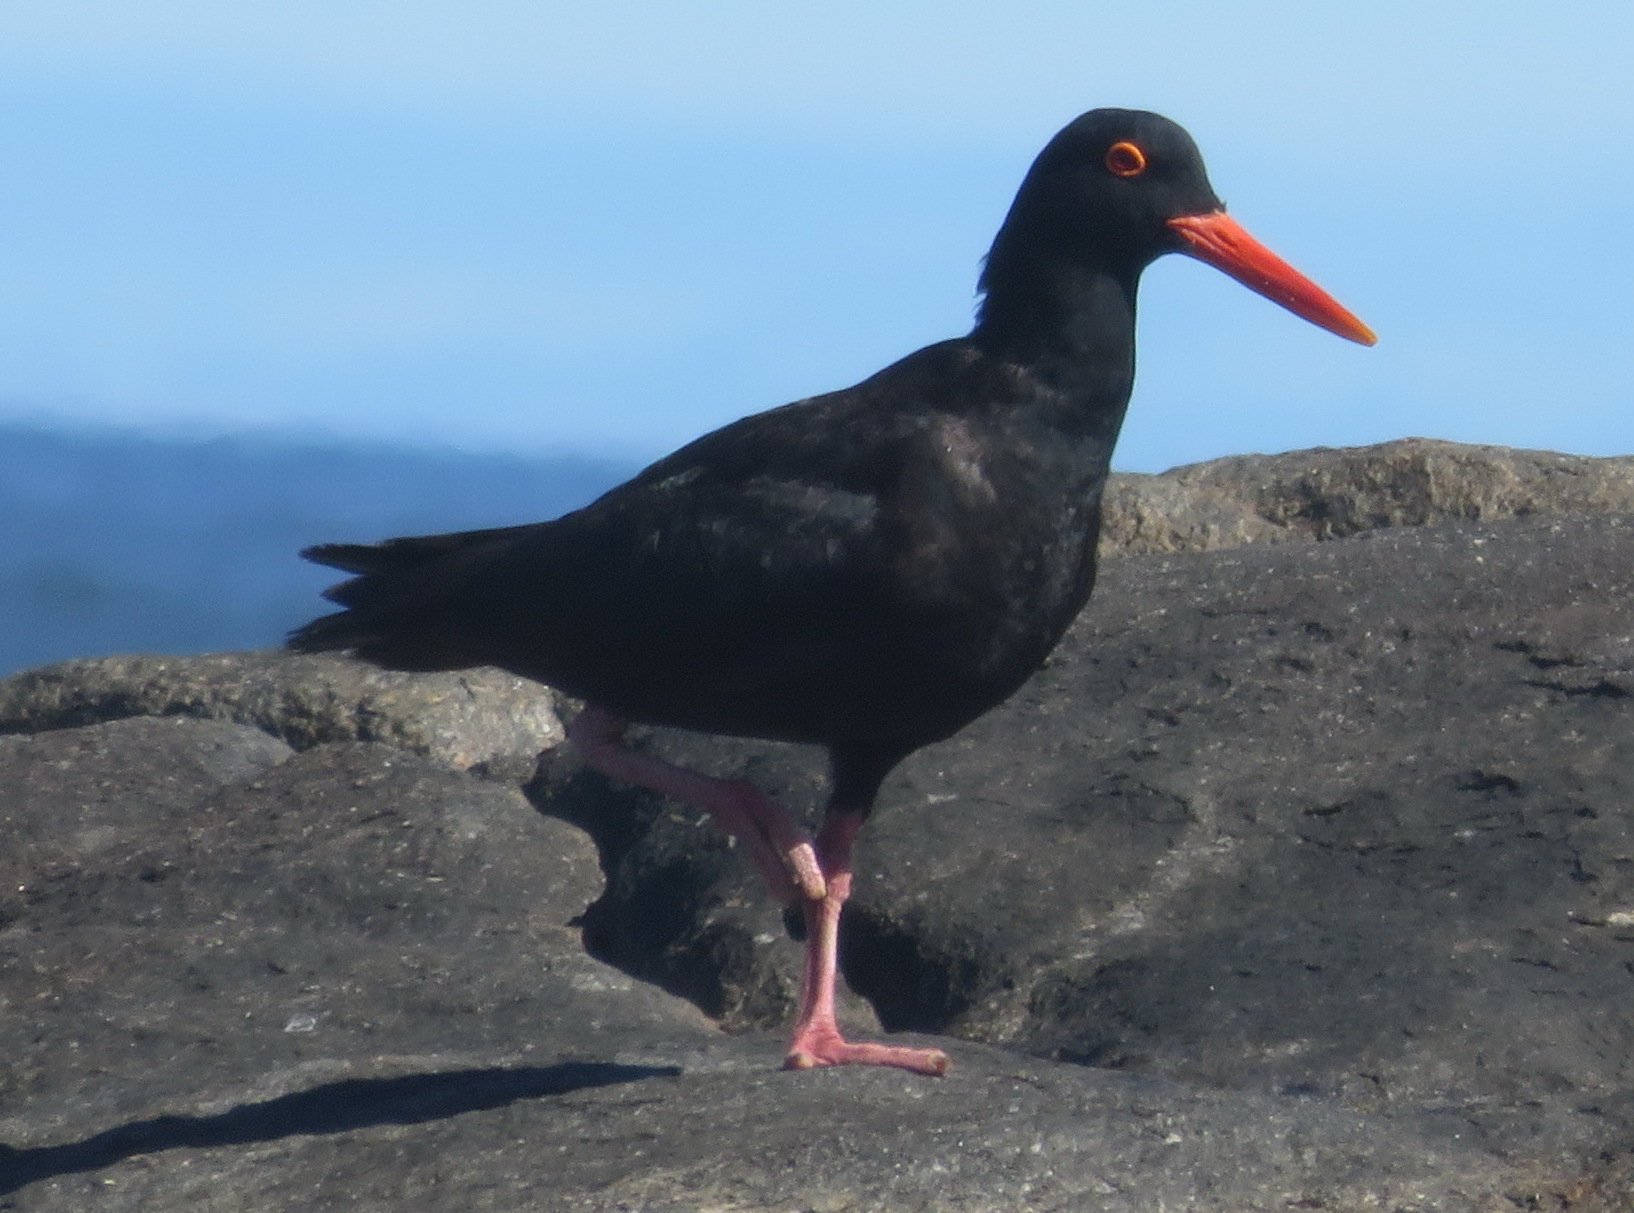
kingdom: Animalia
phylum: Chordata
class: Aves
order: Charadriiformes
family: Haematopodidae
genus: Haematopus
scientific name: Haematopus moquini
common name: African oystercatcher
